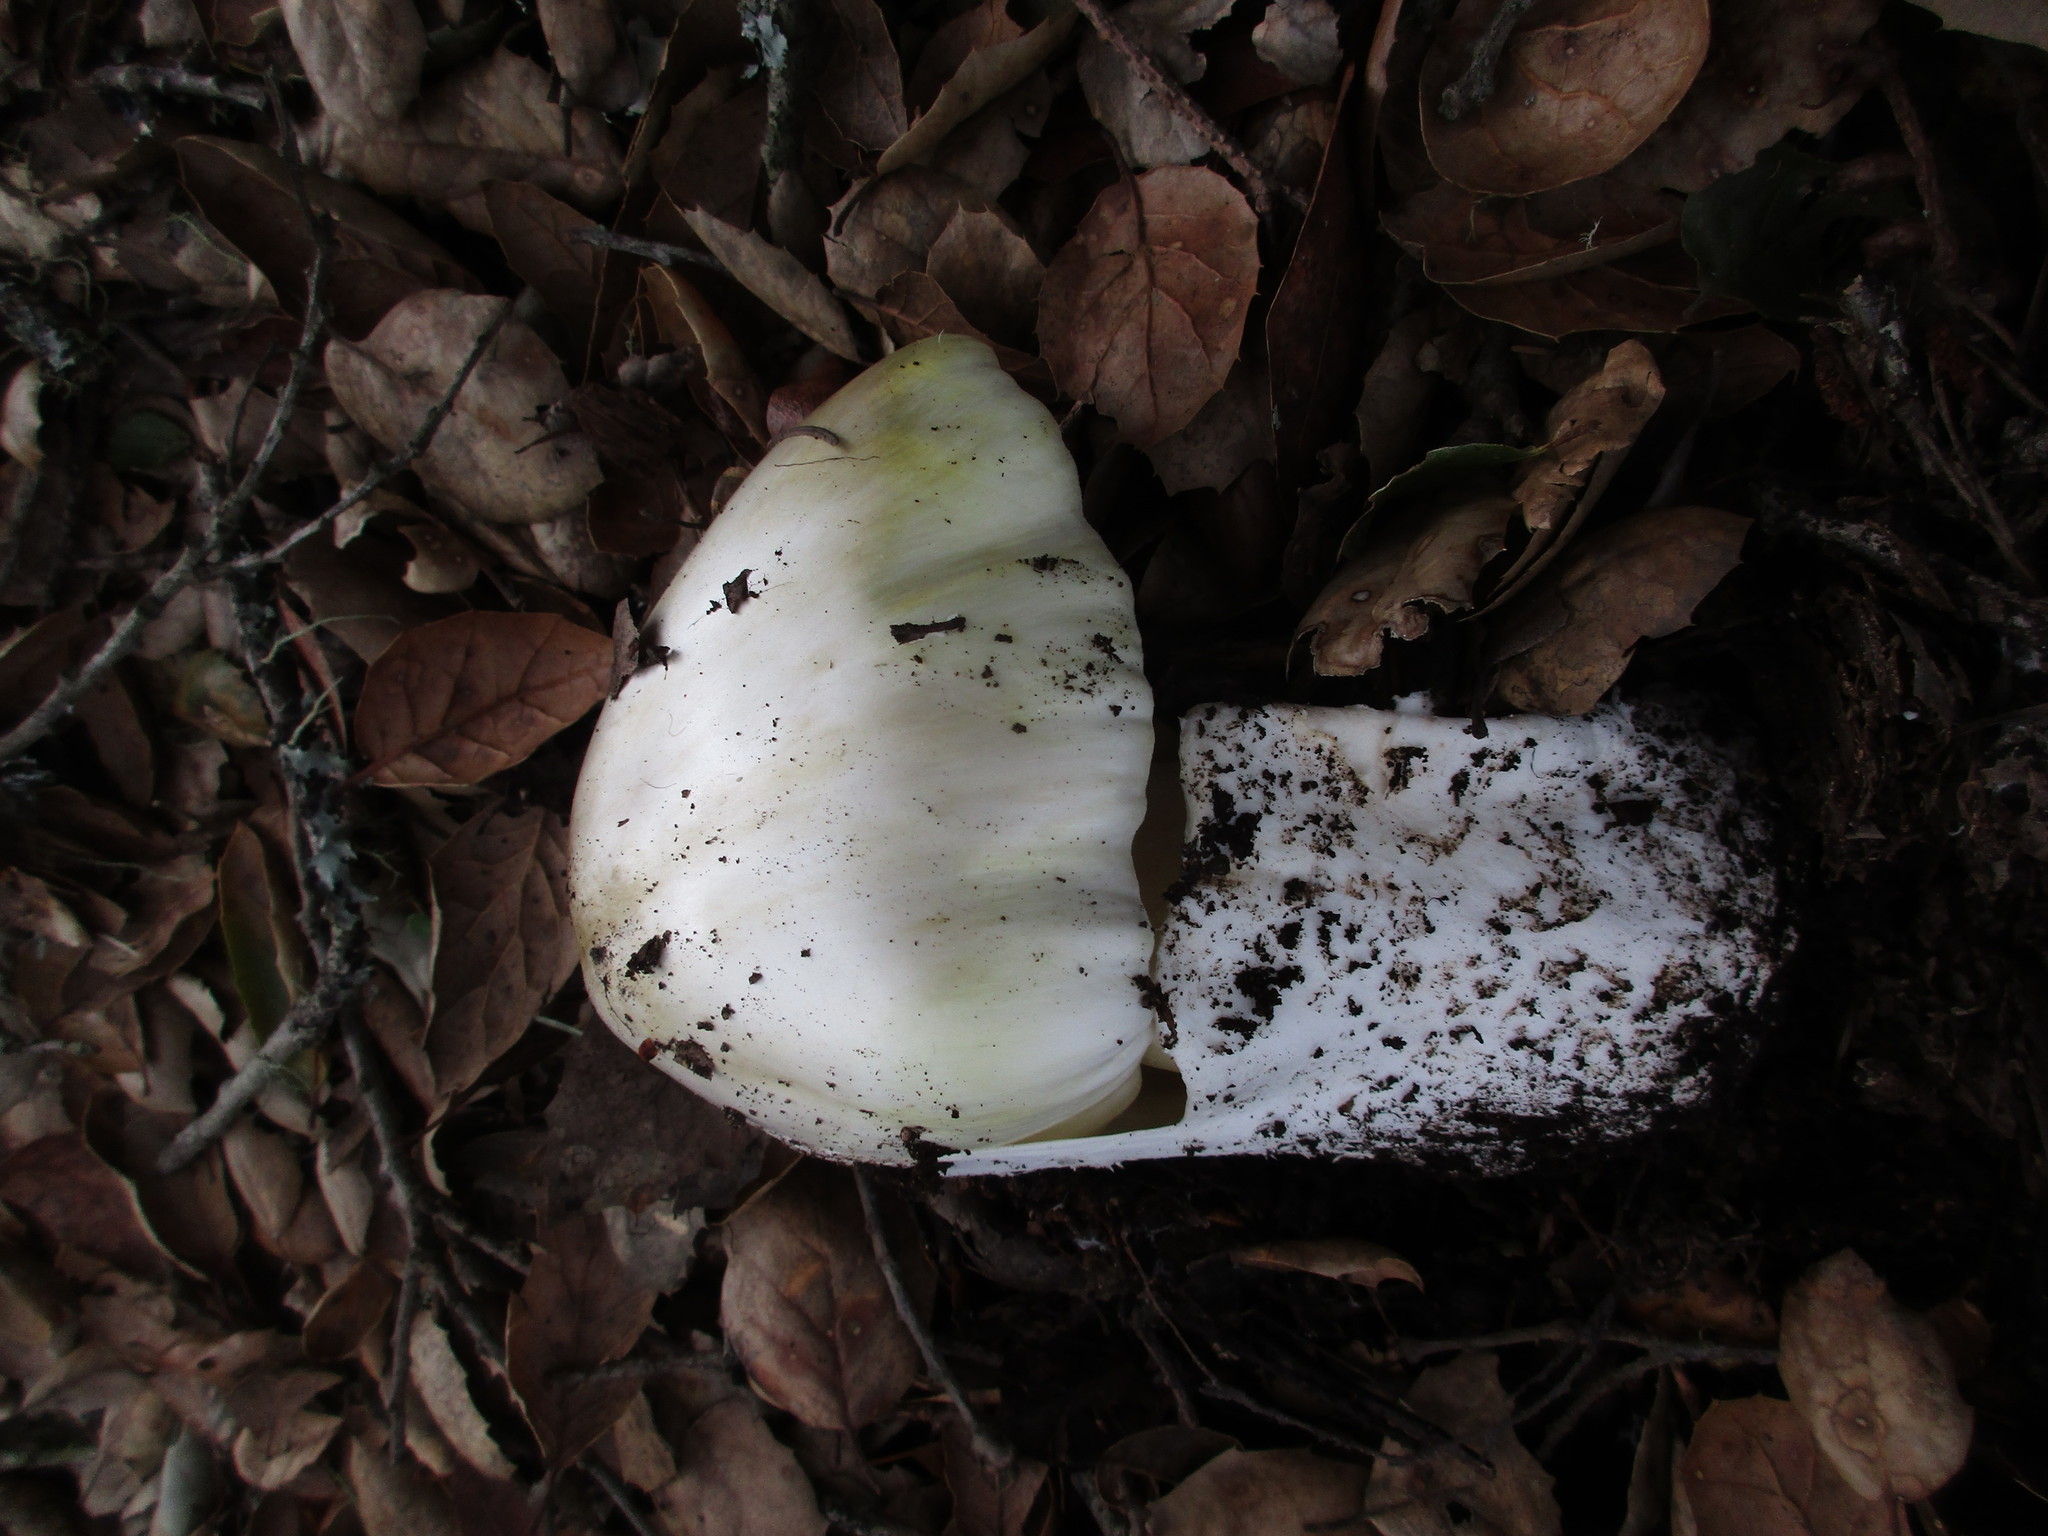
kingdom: Fungi
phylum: Basidiomycota
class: Agaricomycetes
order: Agaricales
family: Amanitaceae
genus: Amanita
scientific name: Amanita phalloides
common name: Death cap
